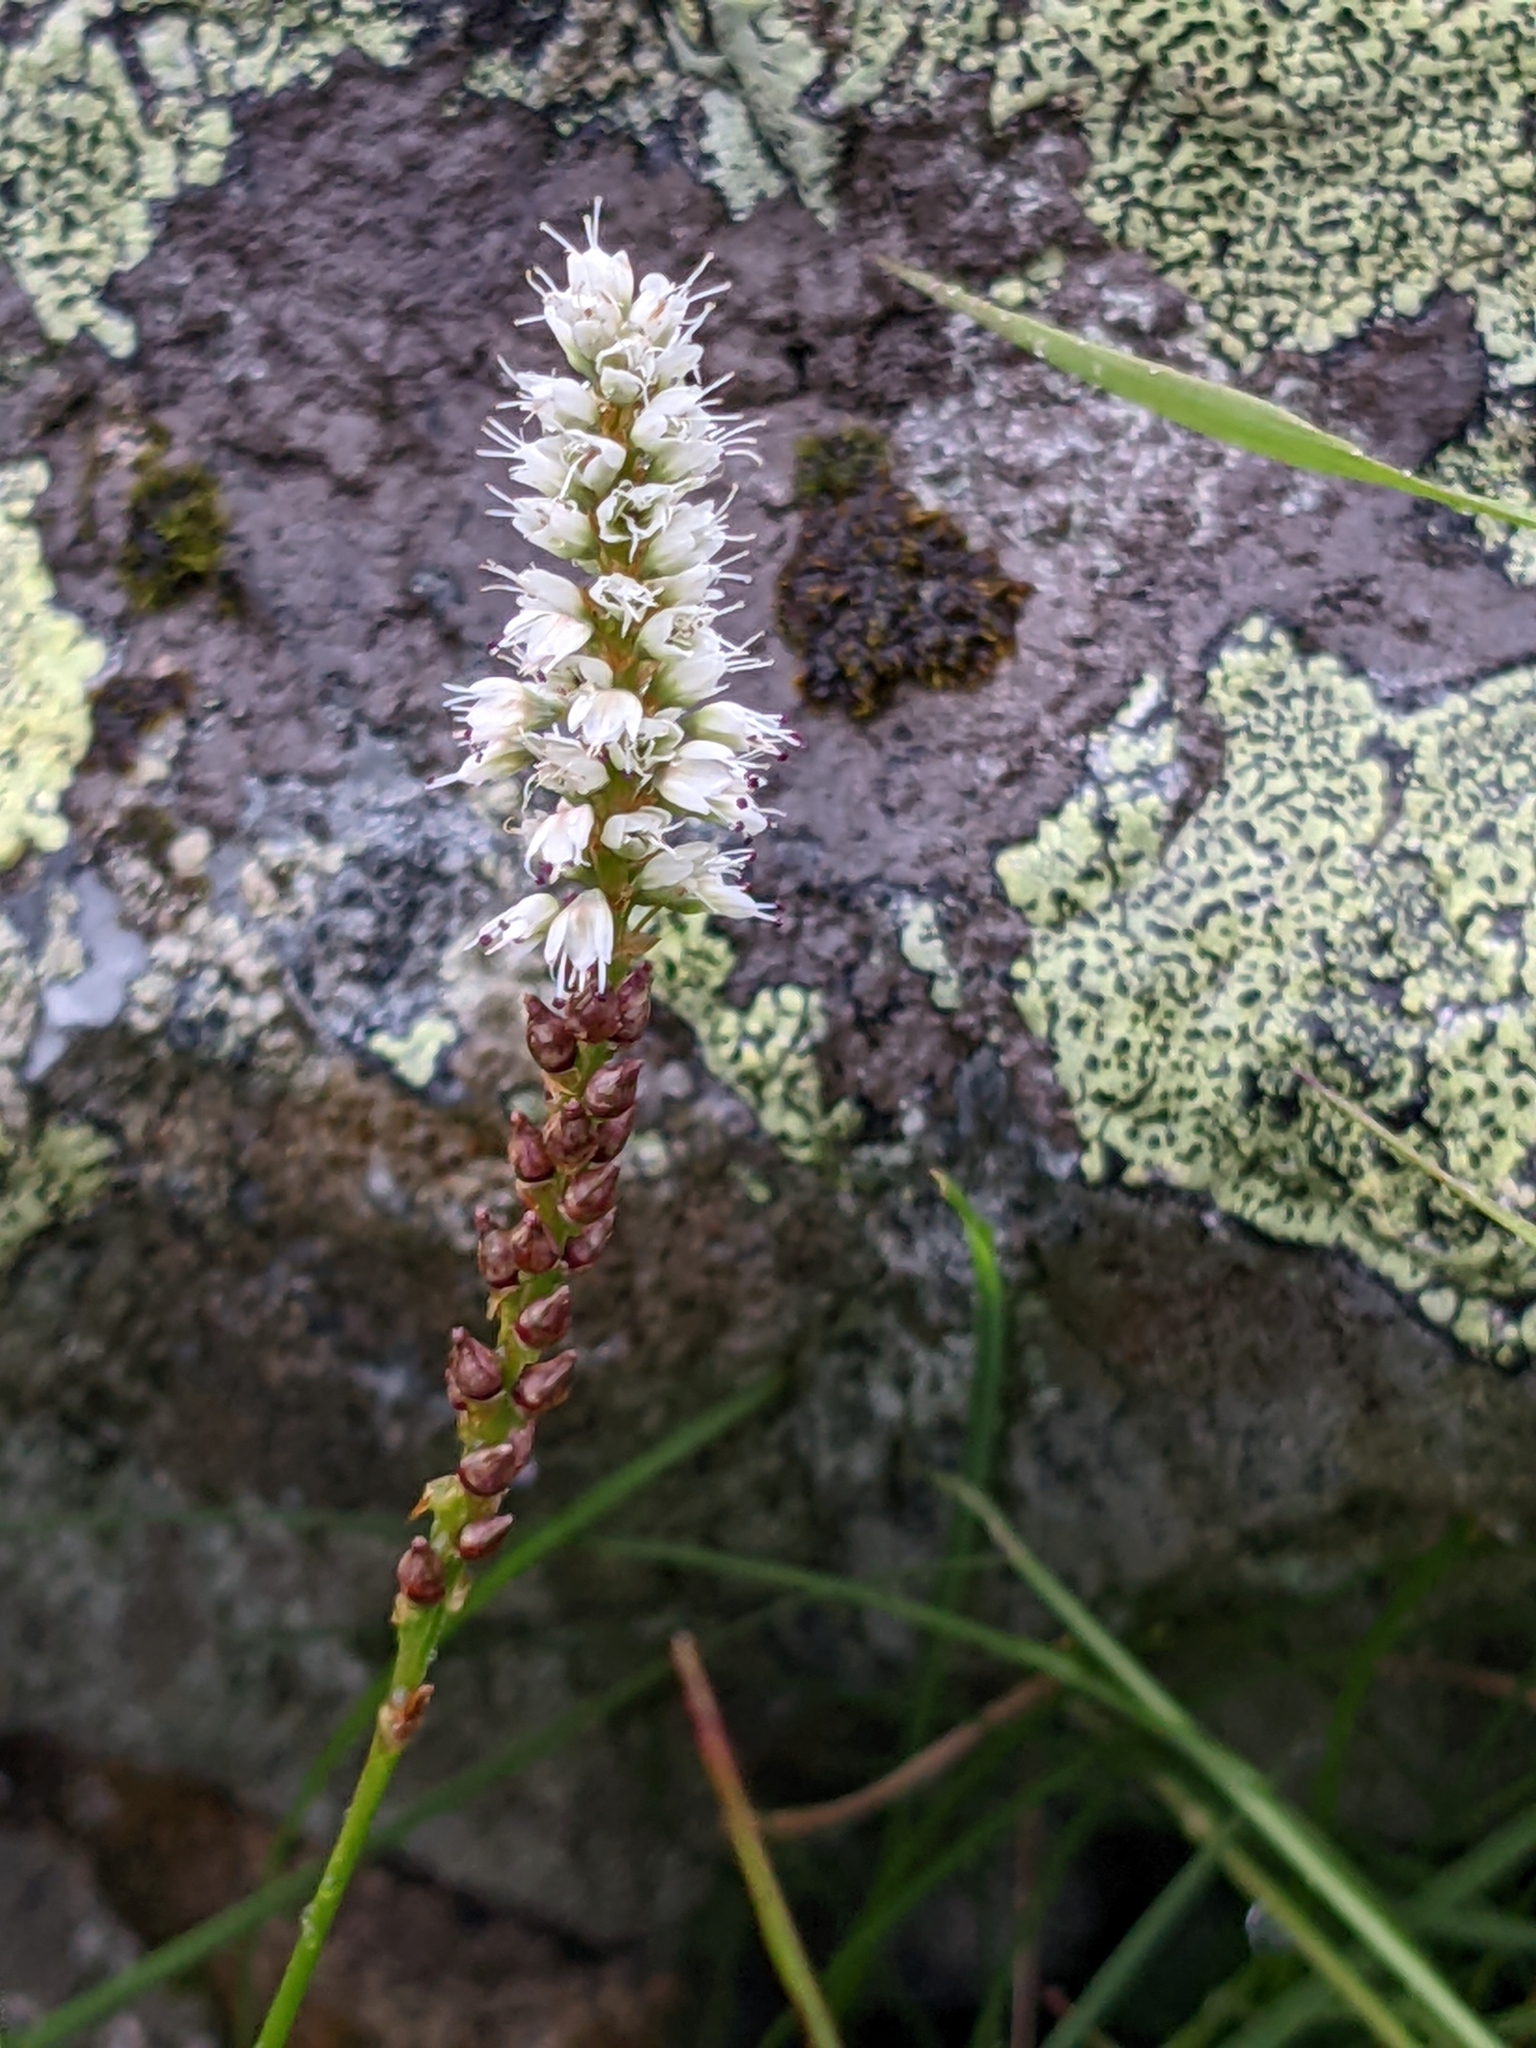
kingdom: Plantae
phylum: Tracheophyta
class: Magnoliopsida
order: Caryophyllales
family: Polygonaceae
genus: Bistorta
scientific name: Bistorta vivipara
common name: Alpine bistort
